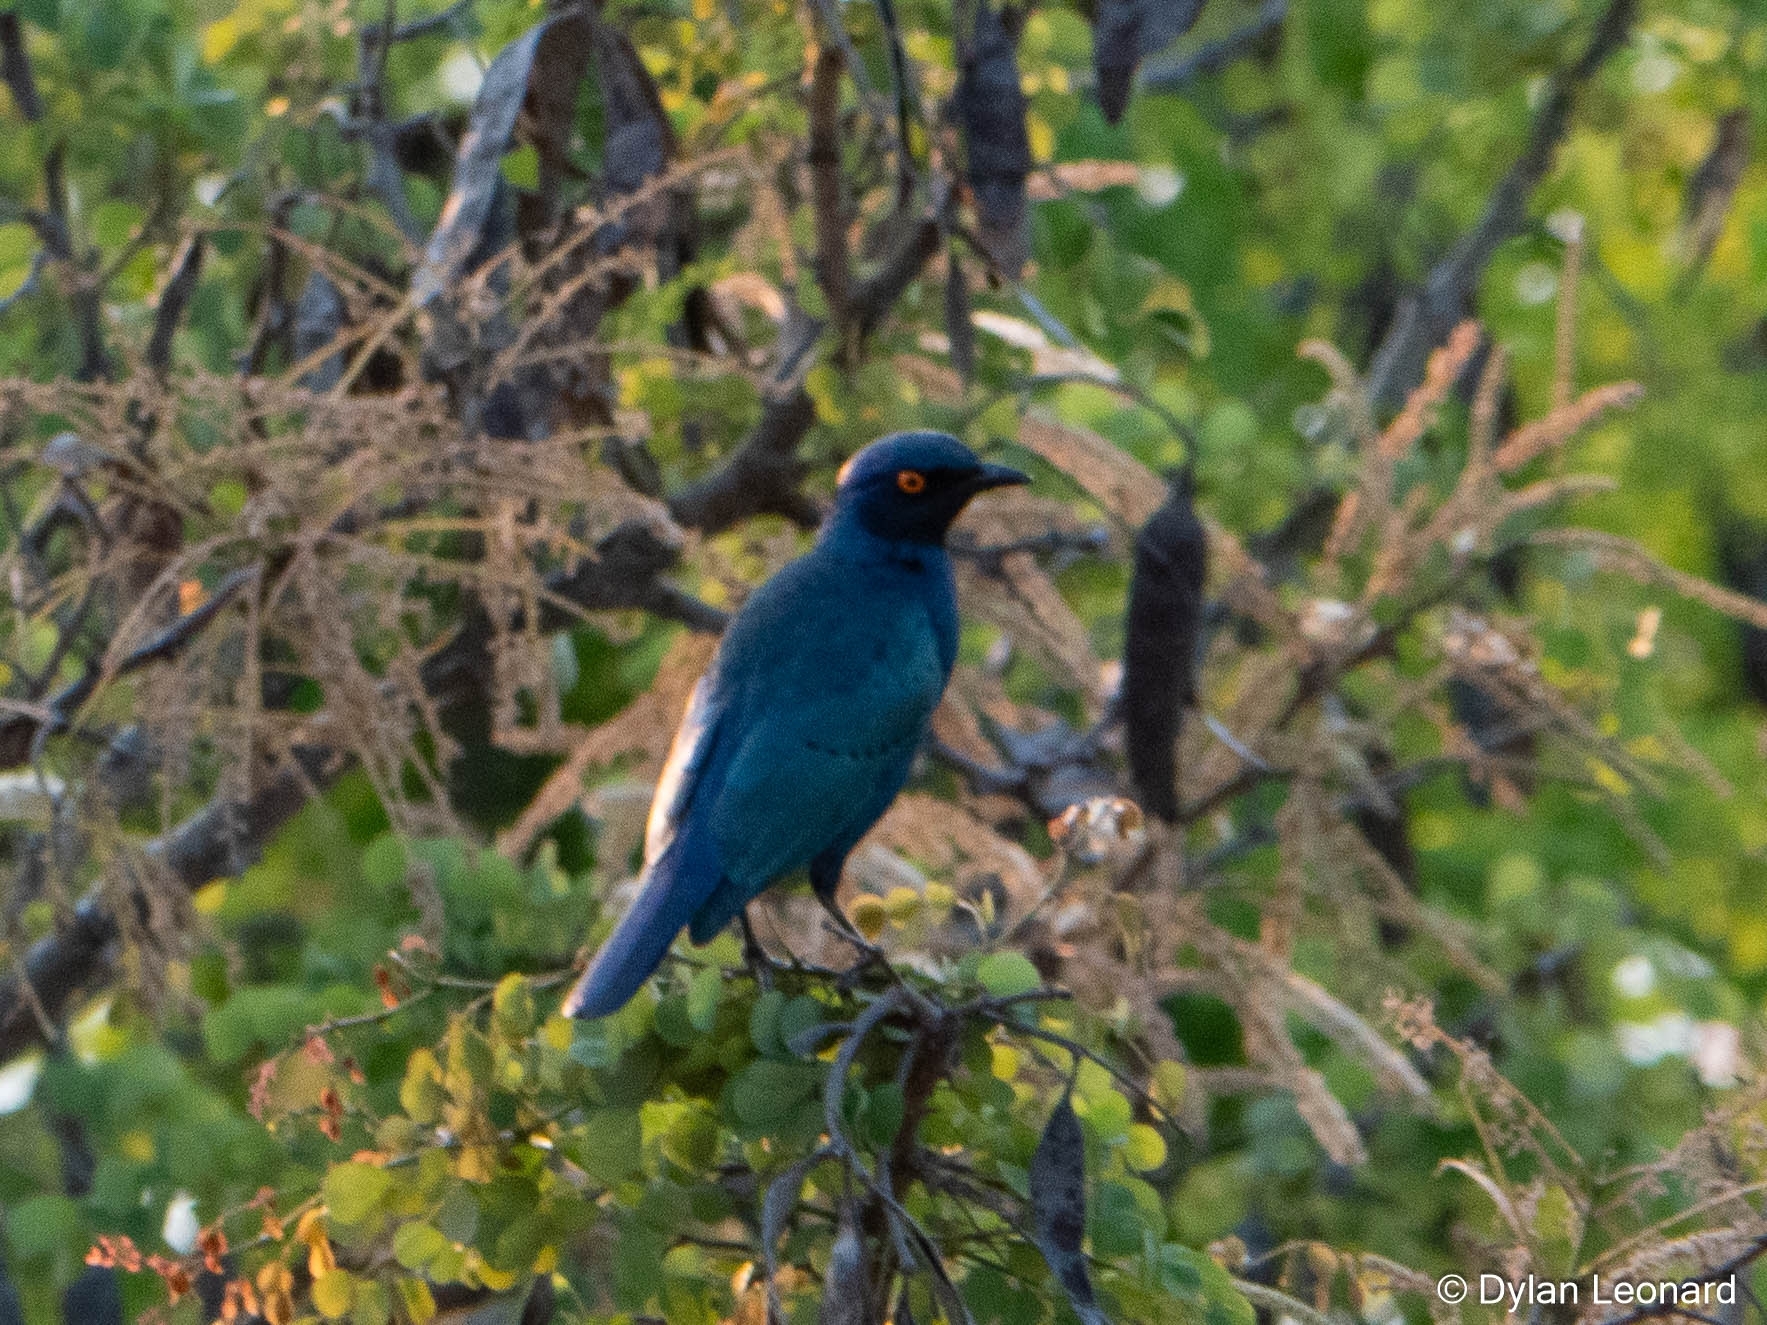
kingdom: Animalia
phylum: Chordata
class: Aves
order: Passeriformes
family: Sturnidae
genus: Lamprotornis
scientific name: Lamprotornis nitens
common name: Cape starling
